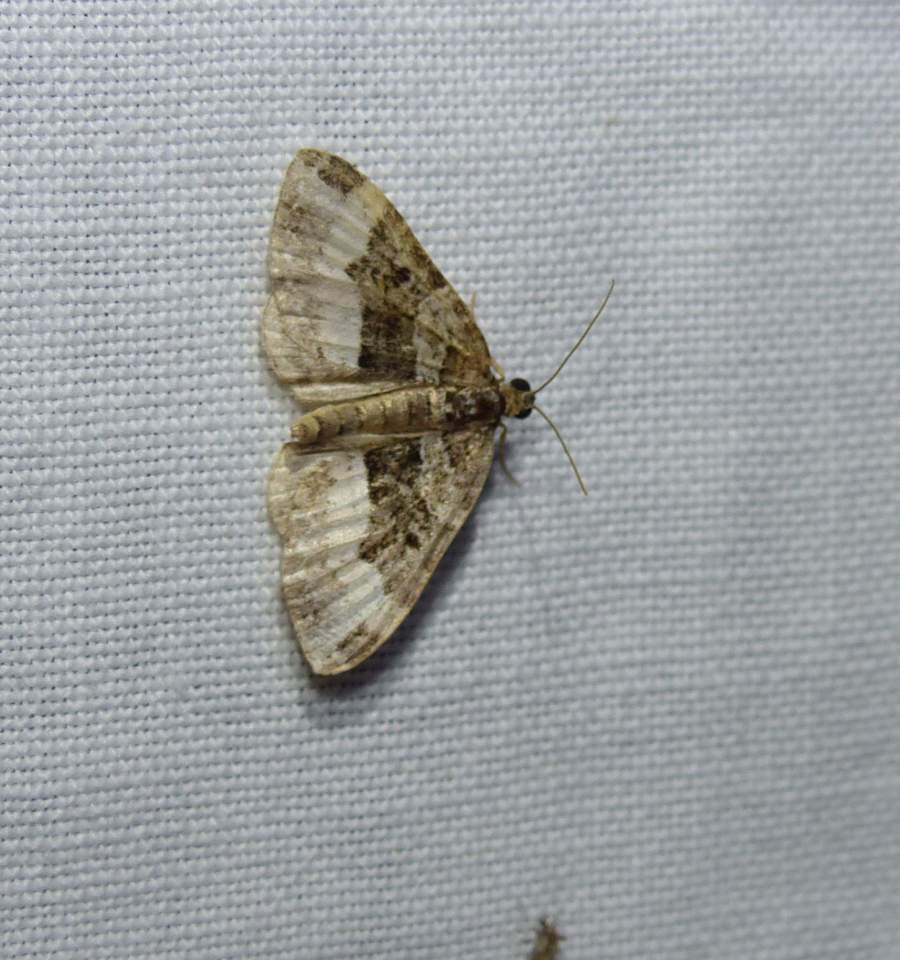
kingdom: Animalia
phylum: Arthropoda
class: Insecta
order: Lepidoptera
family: Geometridae
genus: Epirrhoe
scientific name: Epirrhoe alternata
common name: Common carpet
